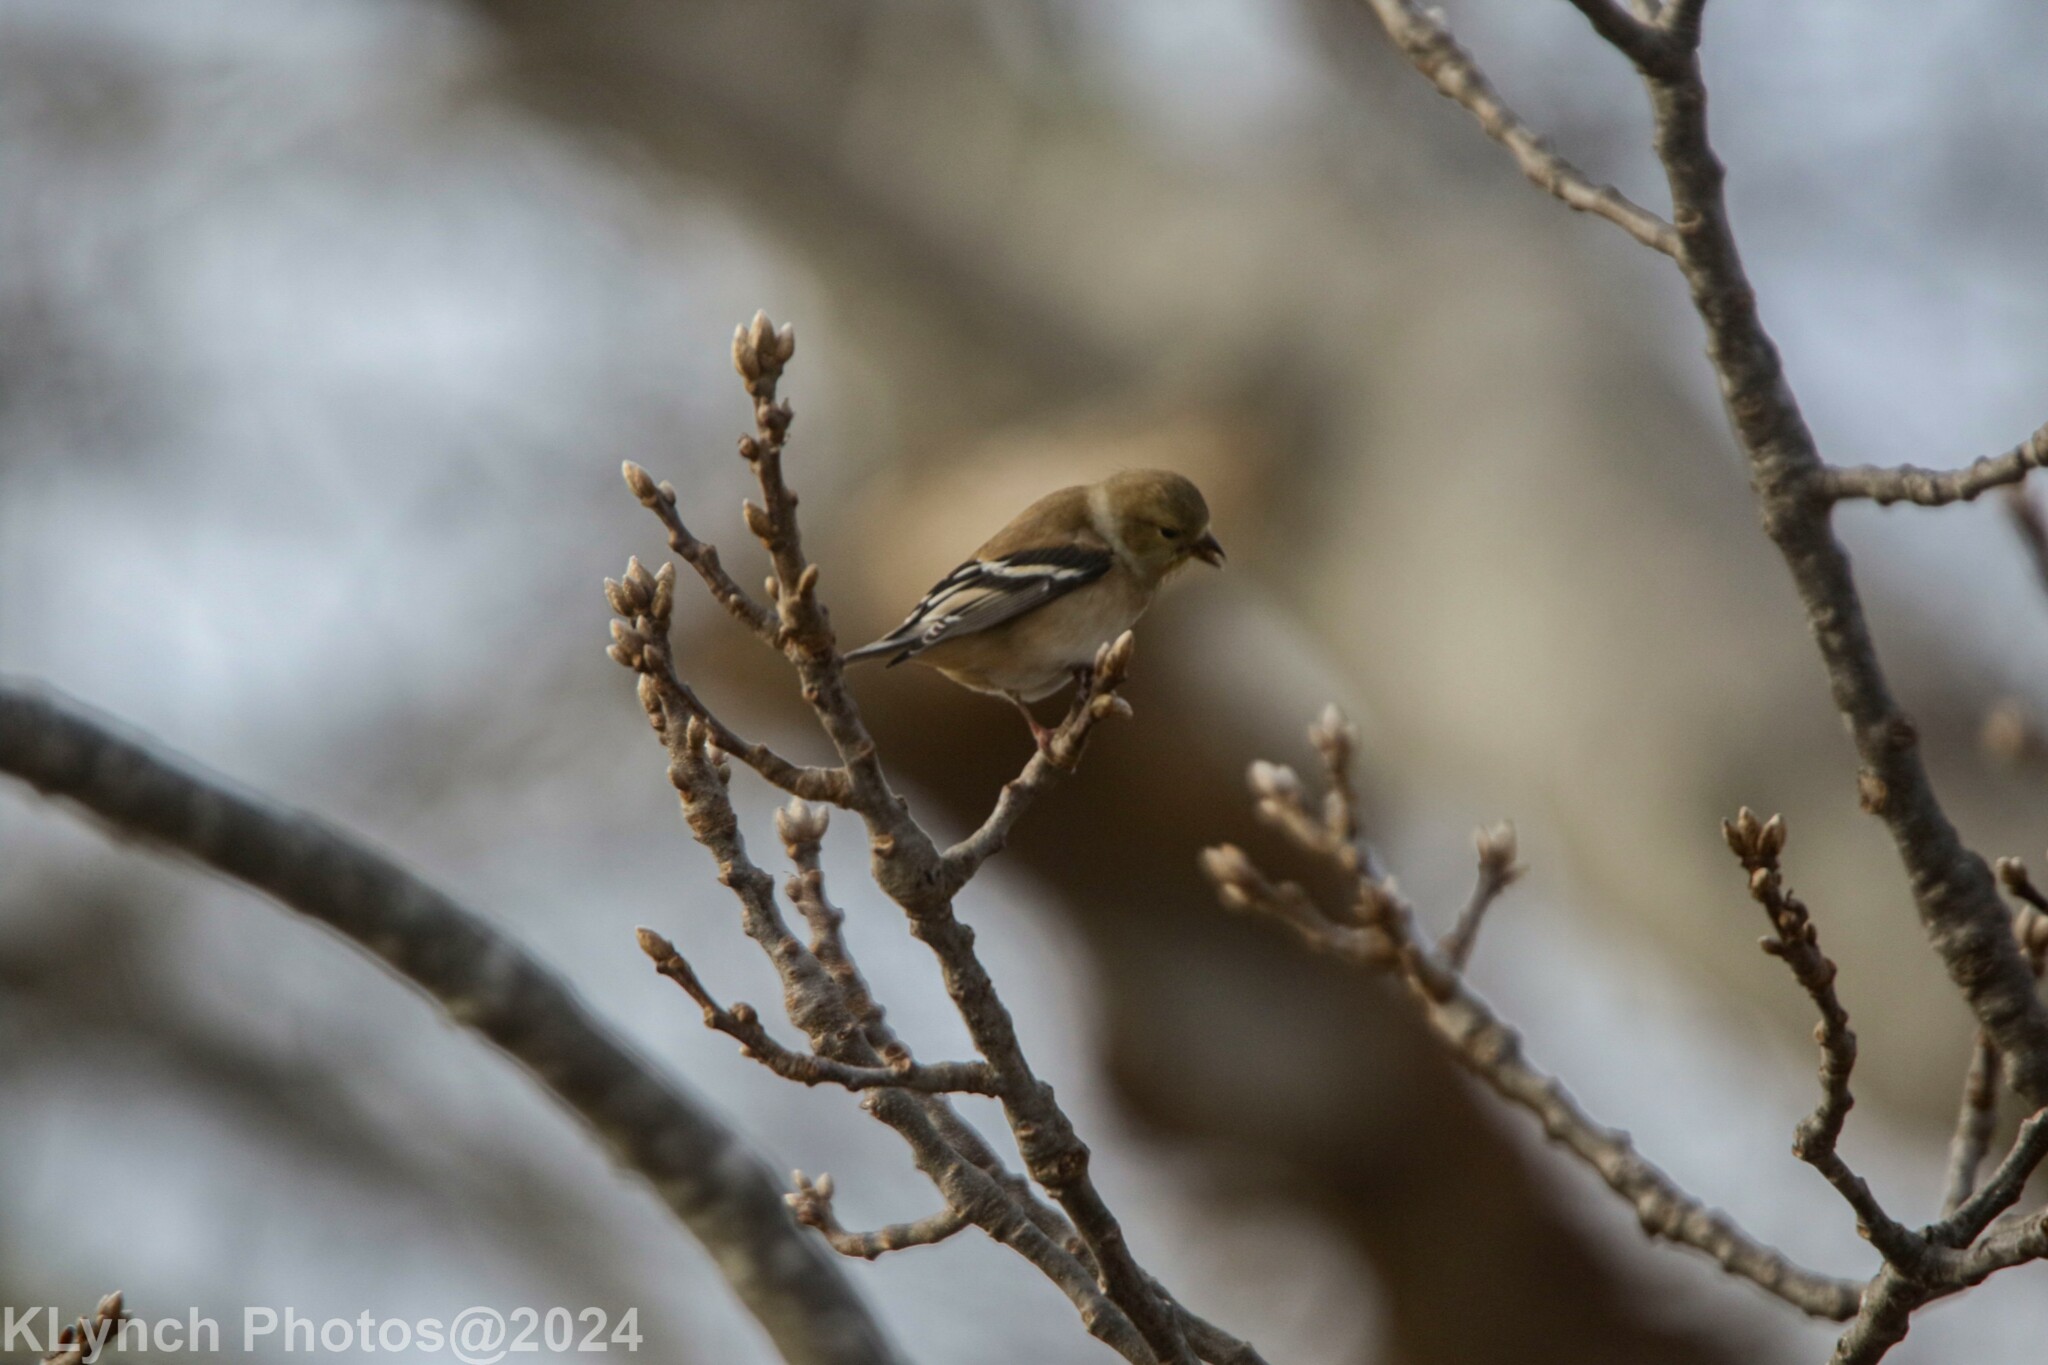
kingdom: Animalia
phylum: Chordata
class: Aves
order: Passeriformes
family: Fringillidae
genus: Spinus
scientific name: Spinus tristis
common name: American goldfinch
